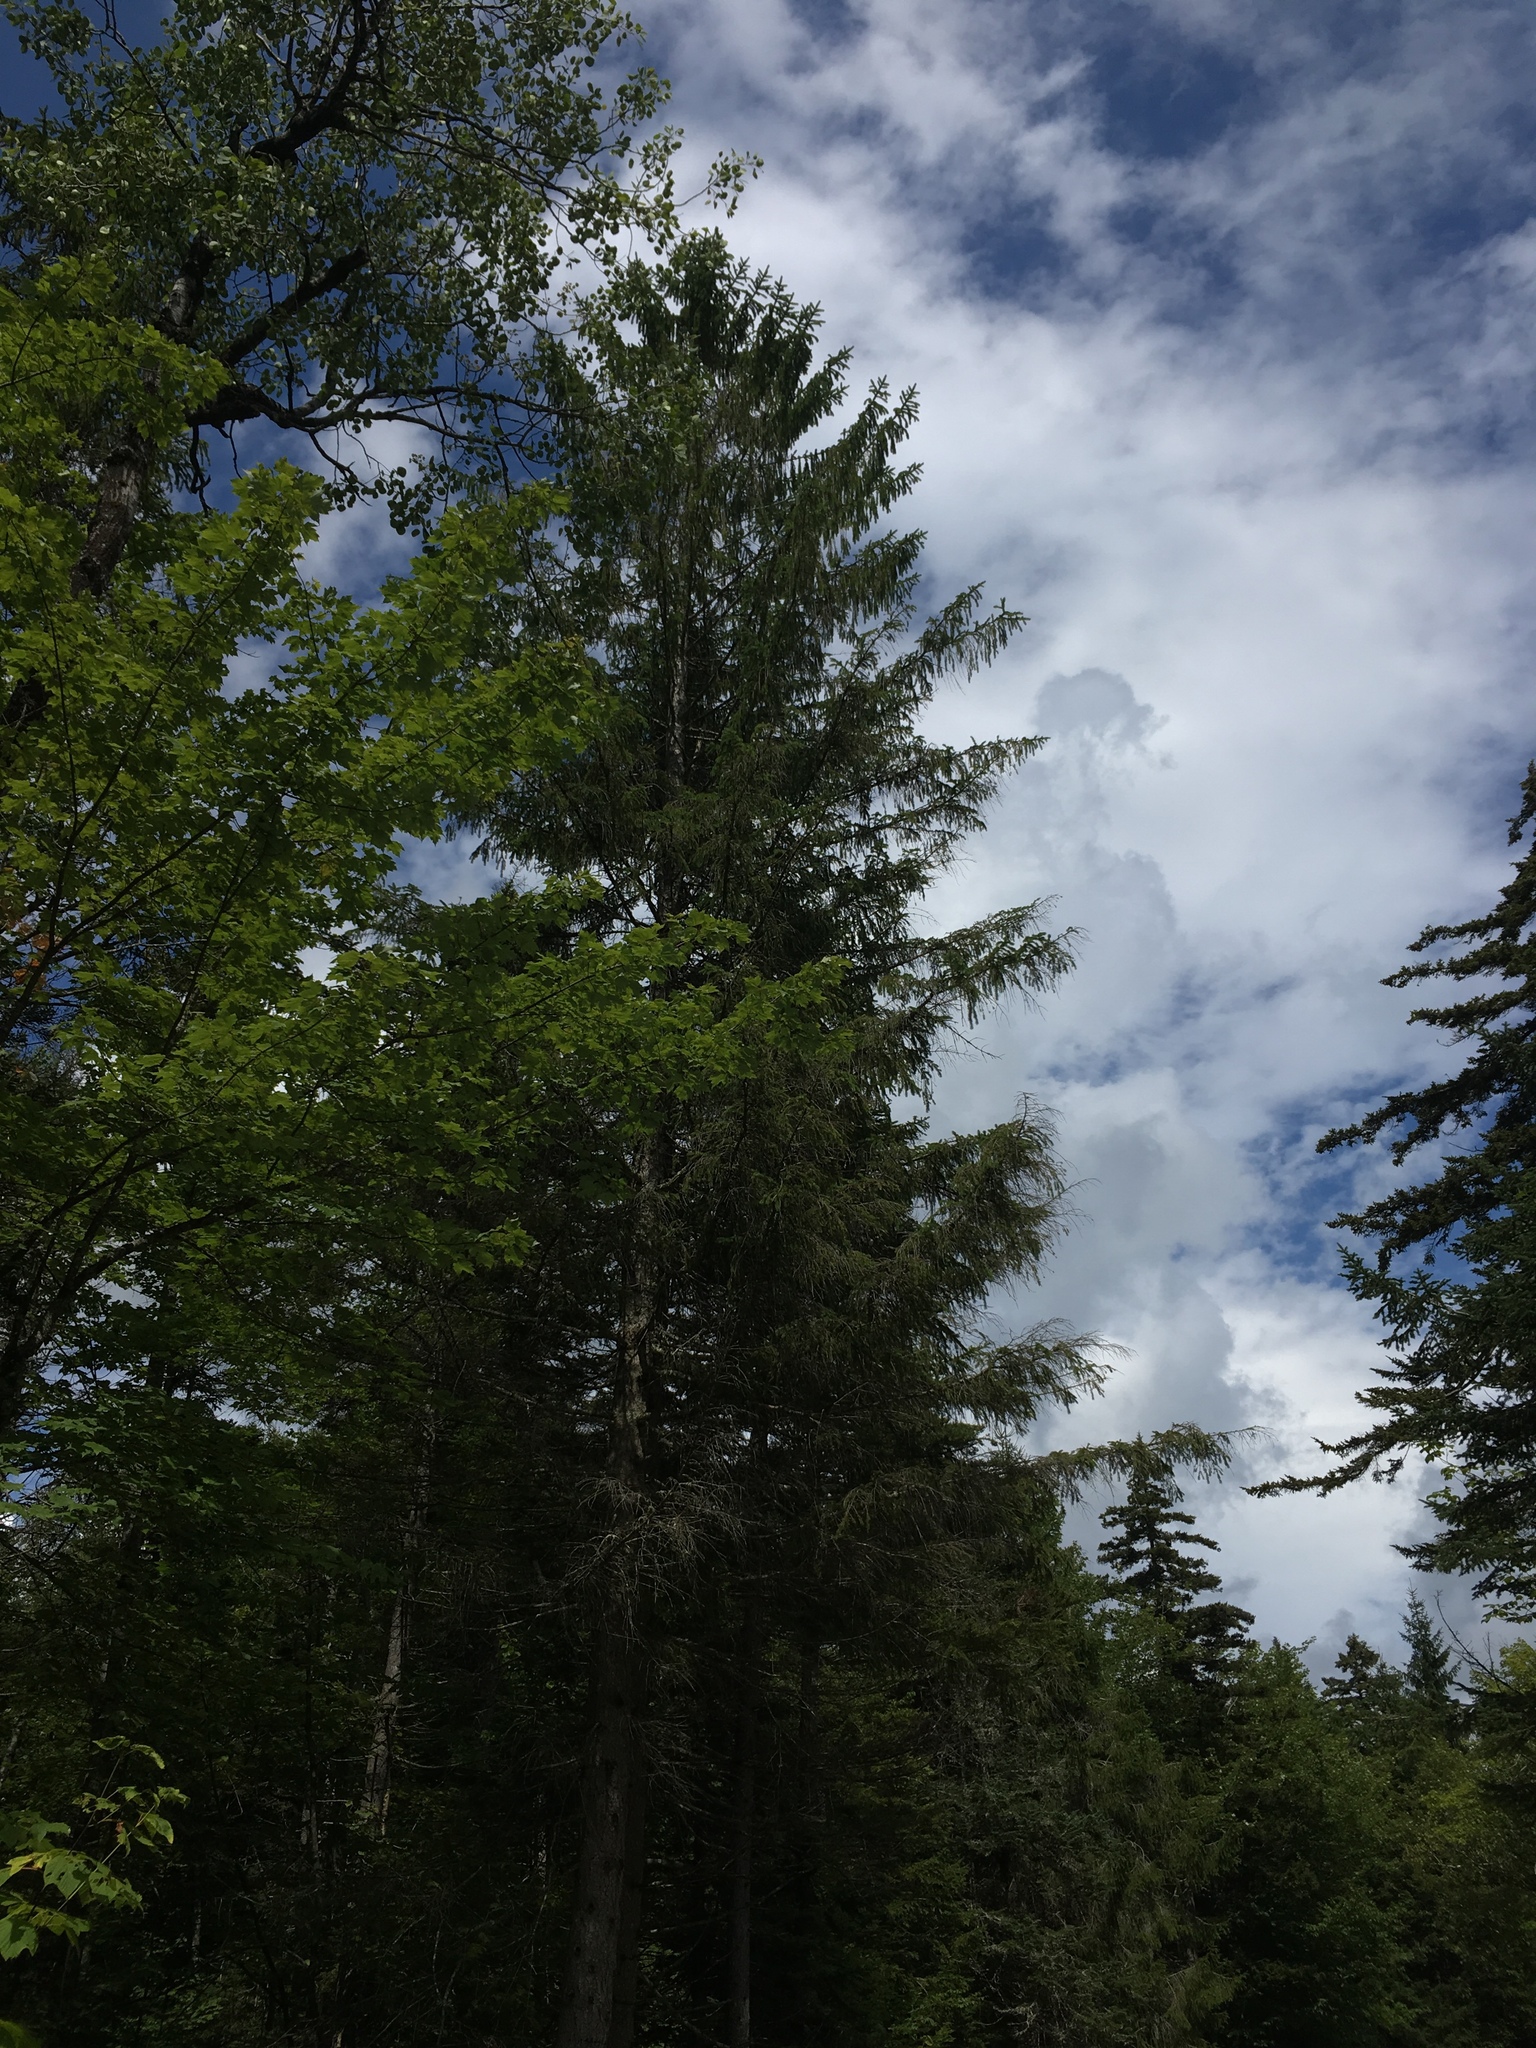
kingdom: Plantae
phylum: Tracheophyta
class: Pinopsida
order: Pinales
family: Pinaceae
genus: Picea
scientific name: Picea abies
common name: Norway spruce
